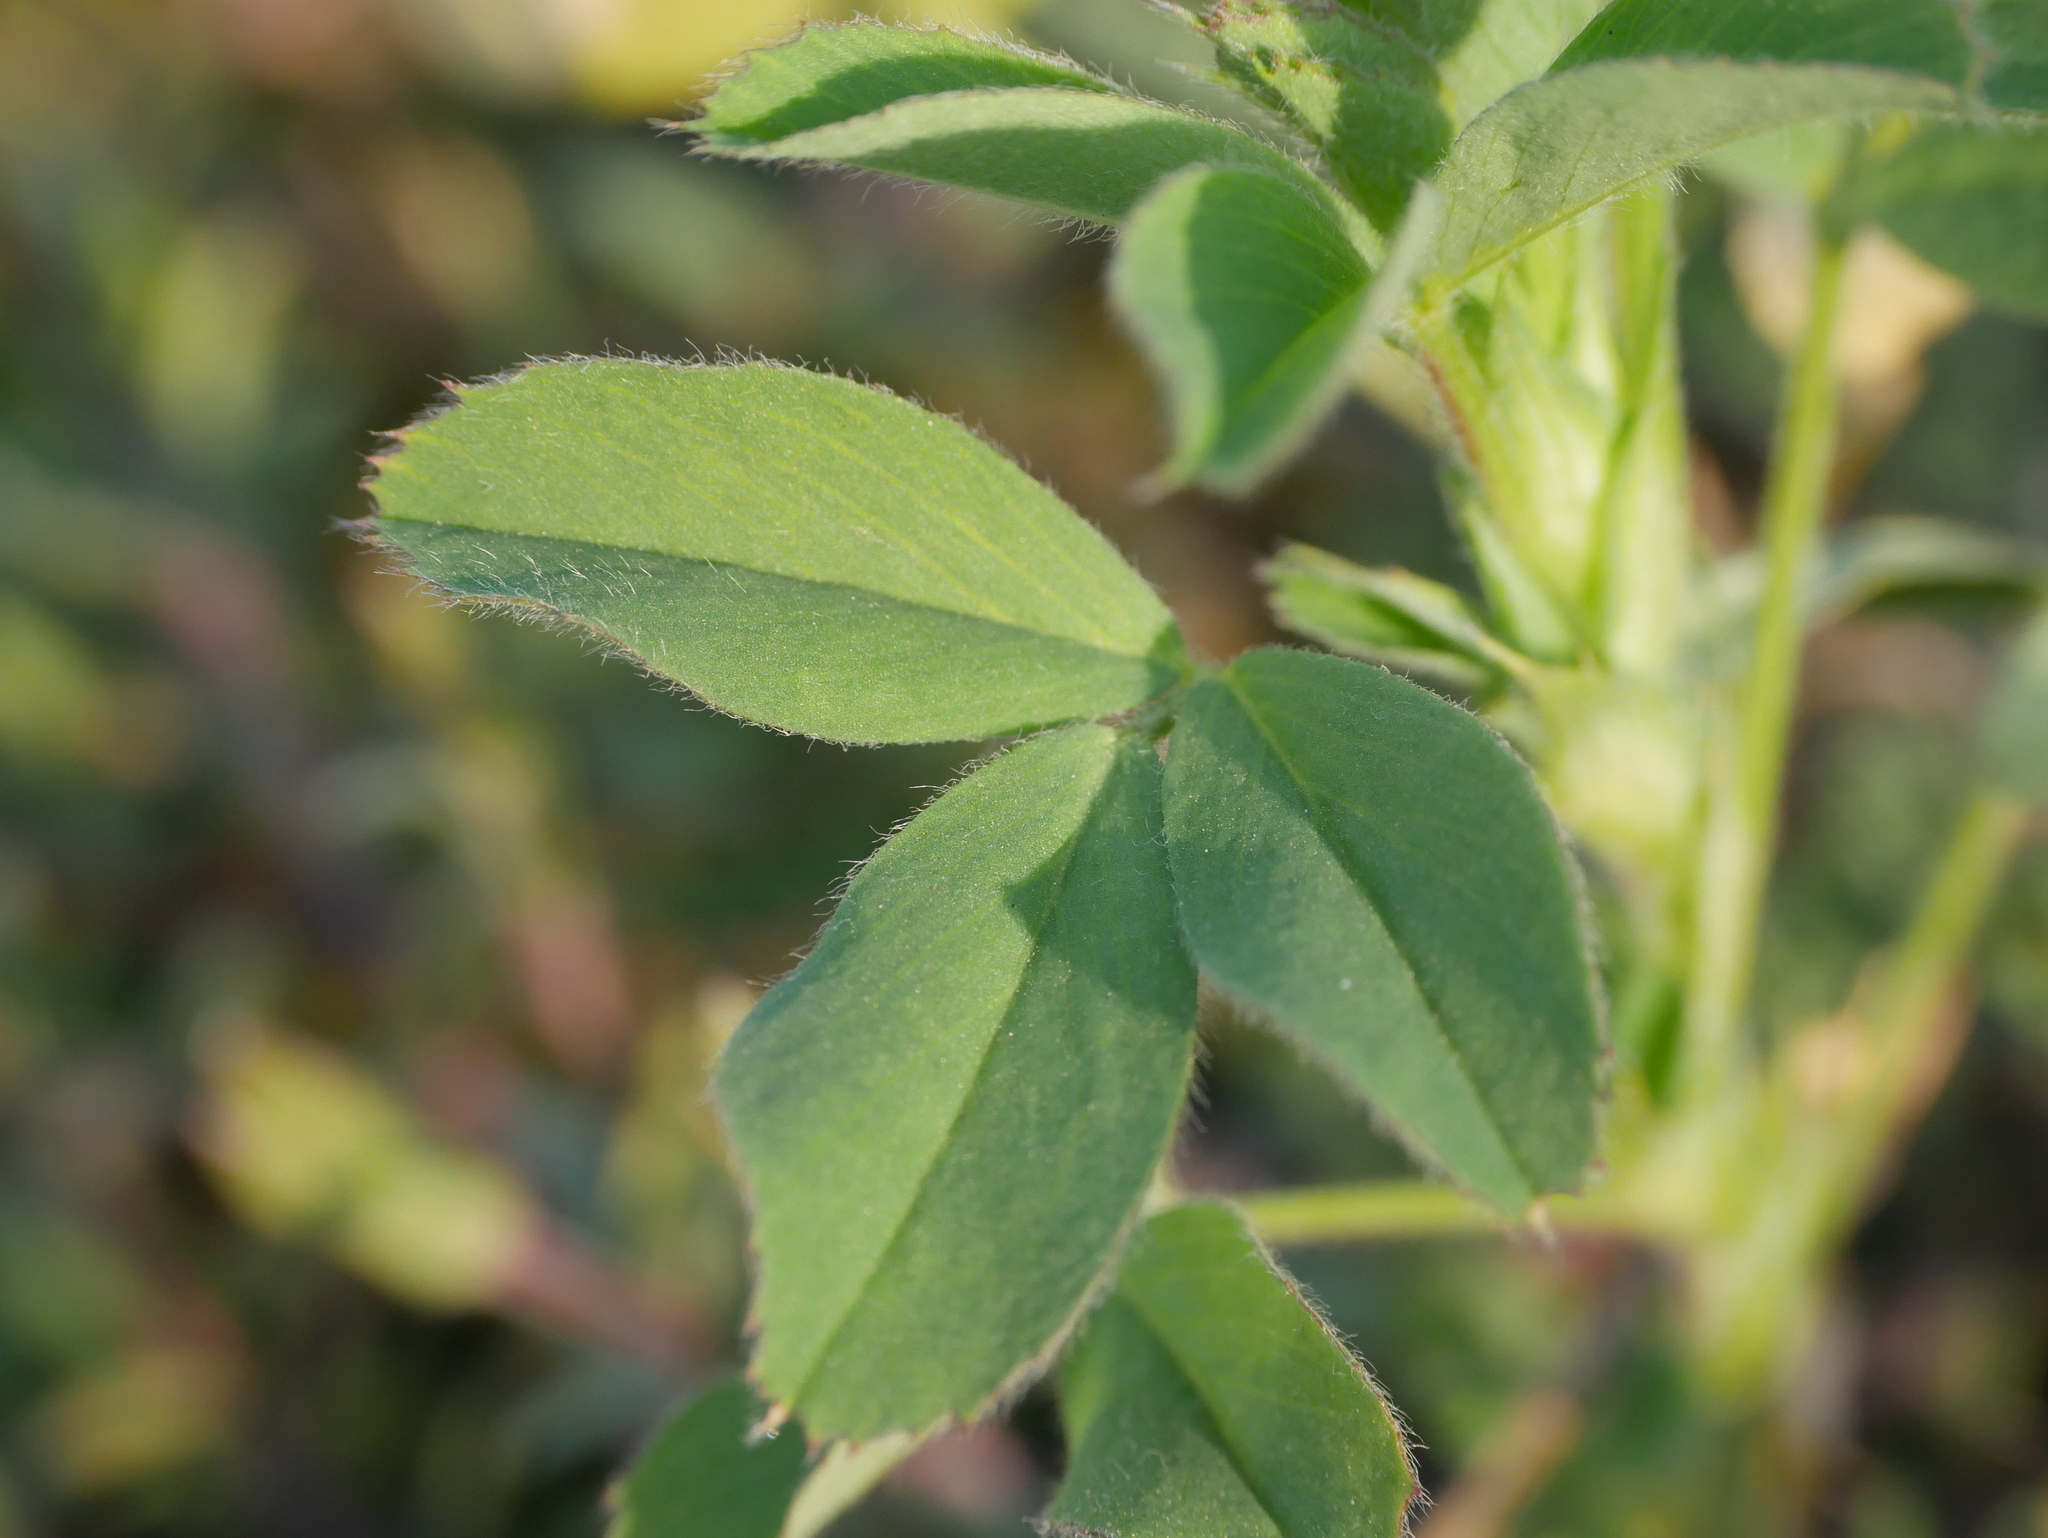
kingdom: Plantae
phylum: Tracheophyta
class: Magnoliopsida
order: Fabales
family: Fabaceae
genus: Trifolium
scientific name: Trifolium pratense
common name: Red clover
